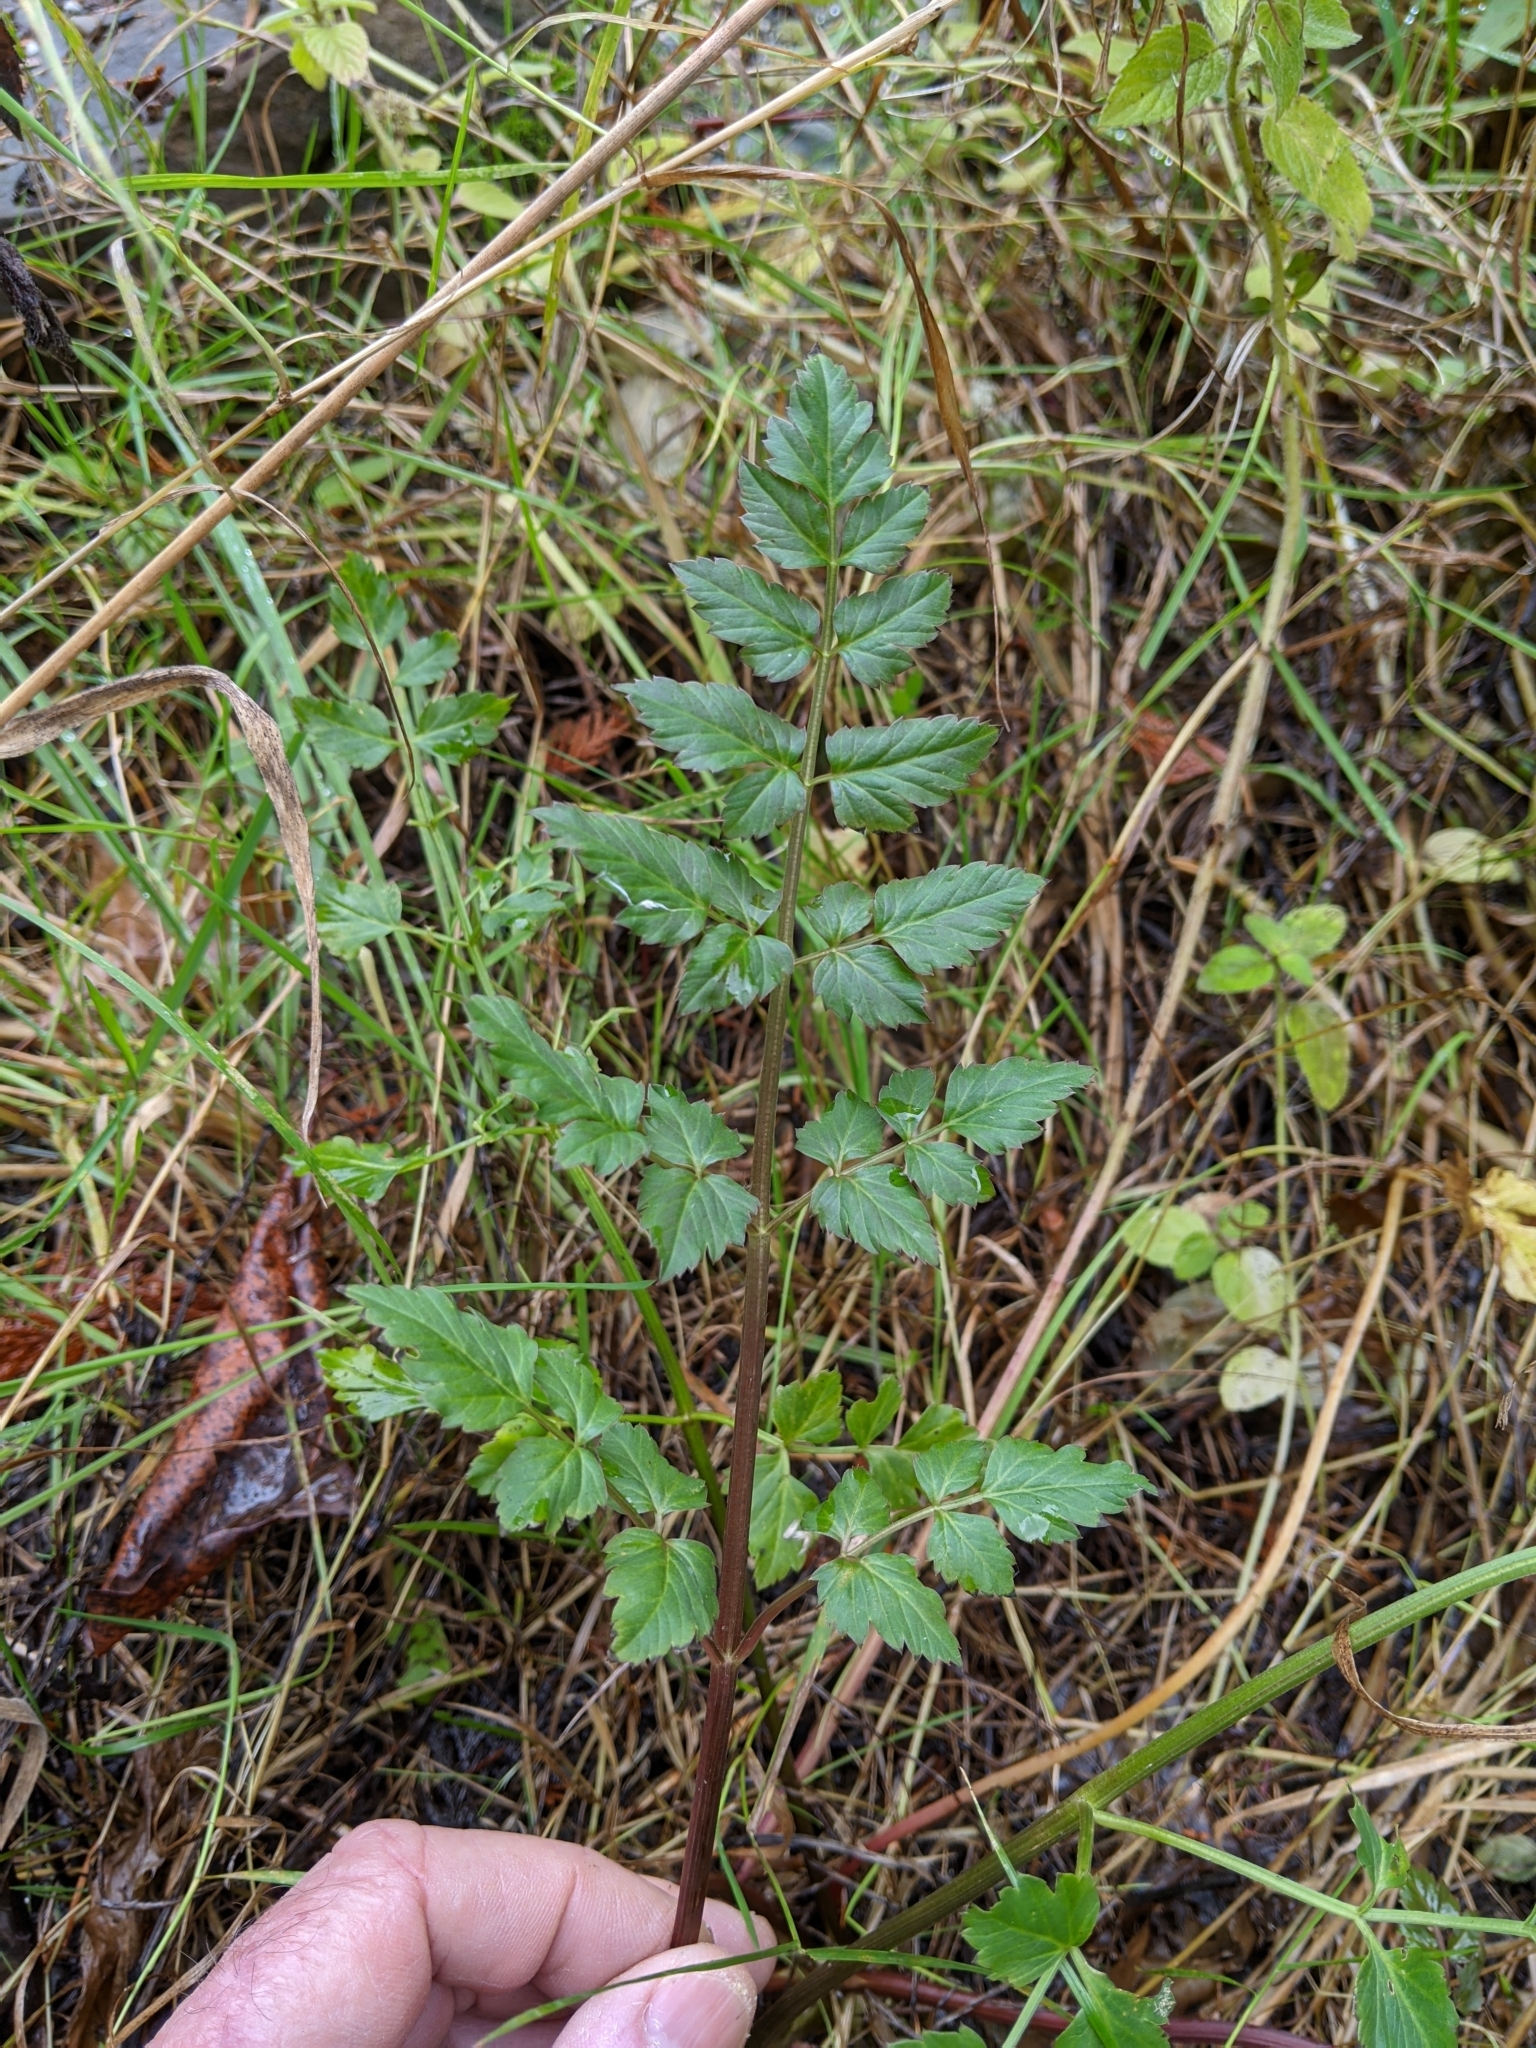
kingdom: Plantae
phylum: Tracheophyta
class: Magnoliopsida
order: Apiales
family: Apiaceae
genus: Oenanthe
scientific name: Oenanthe sarmentosa
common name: American water-parsley
